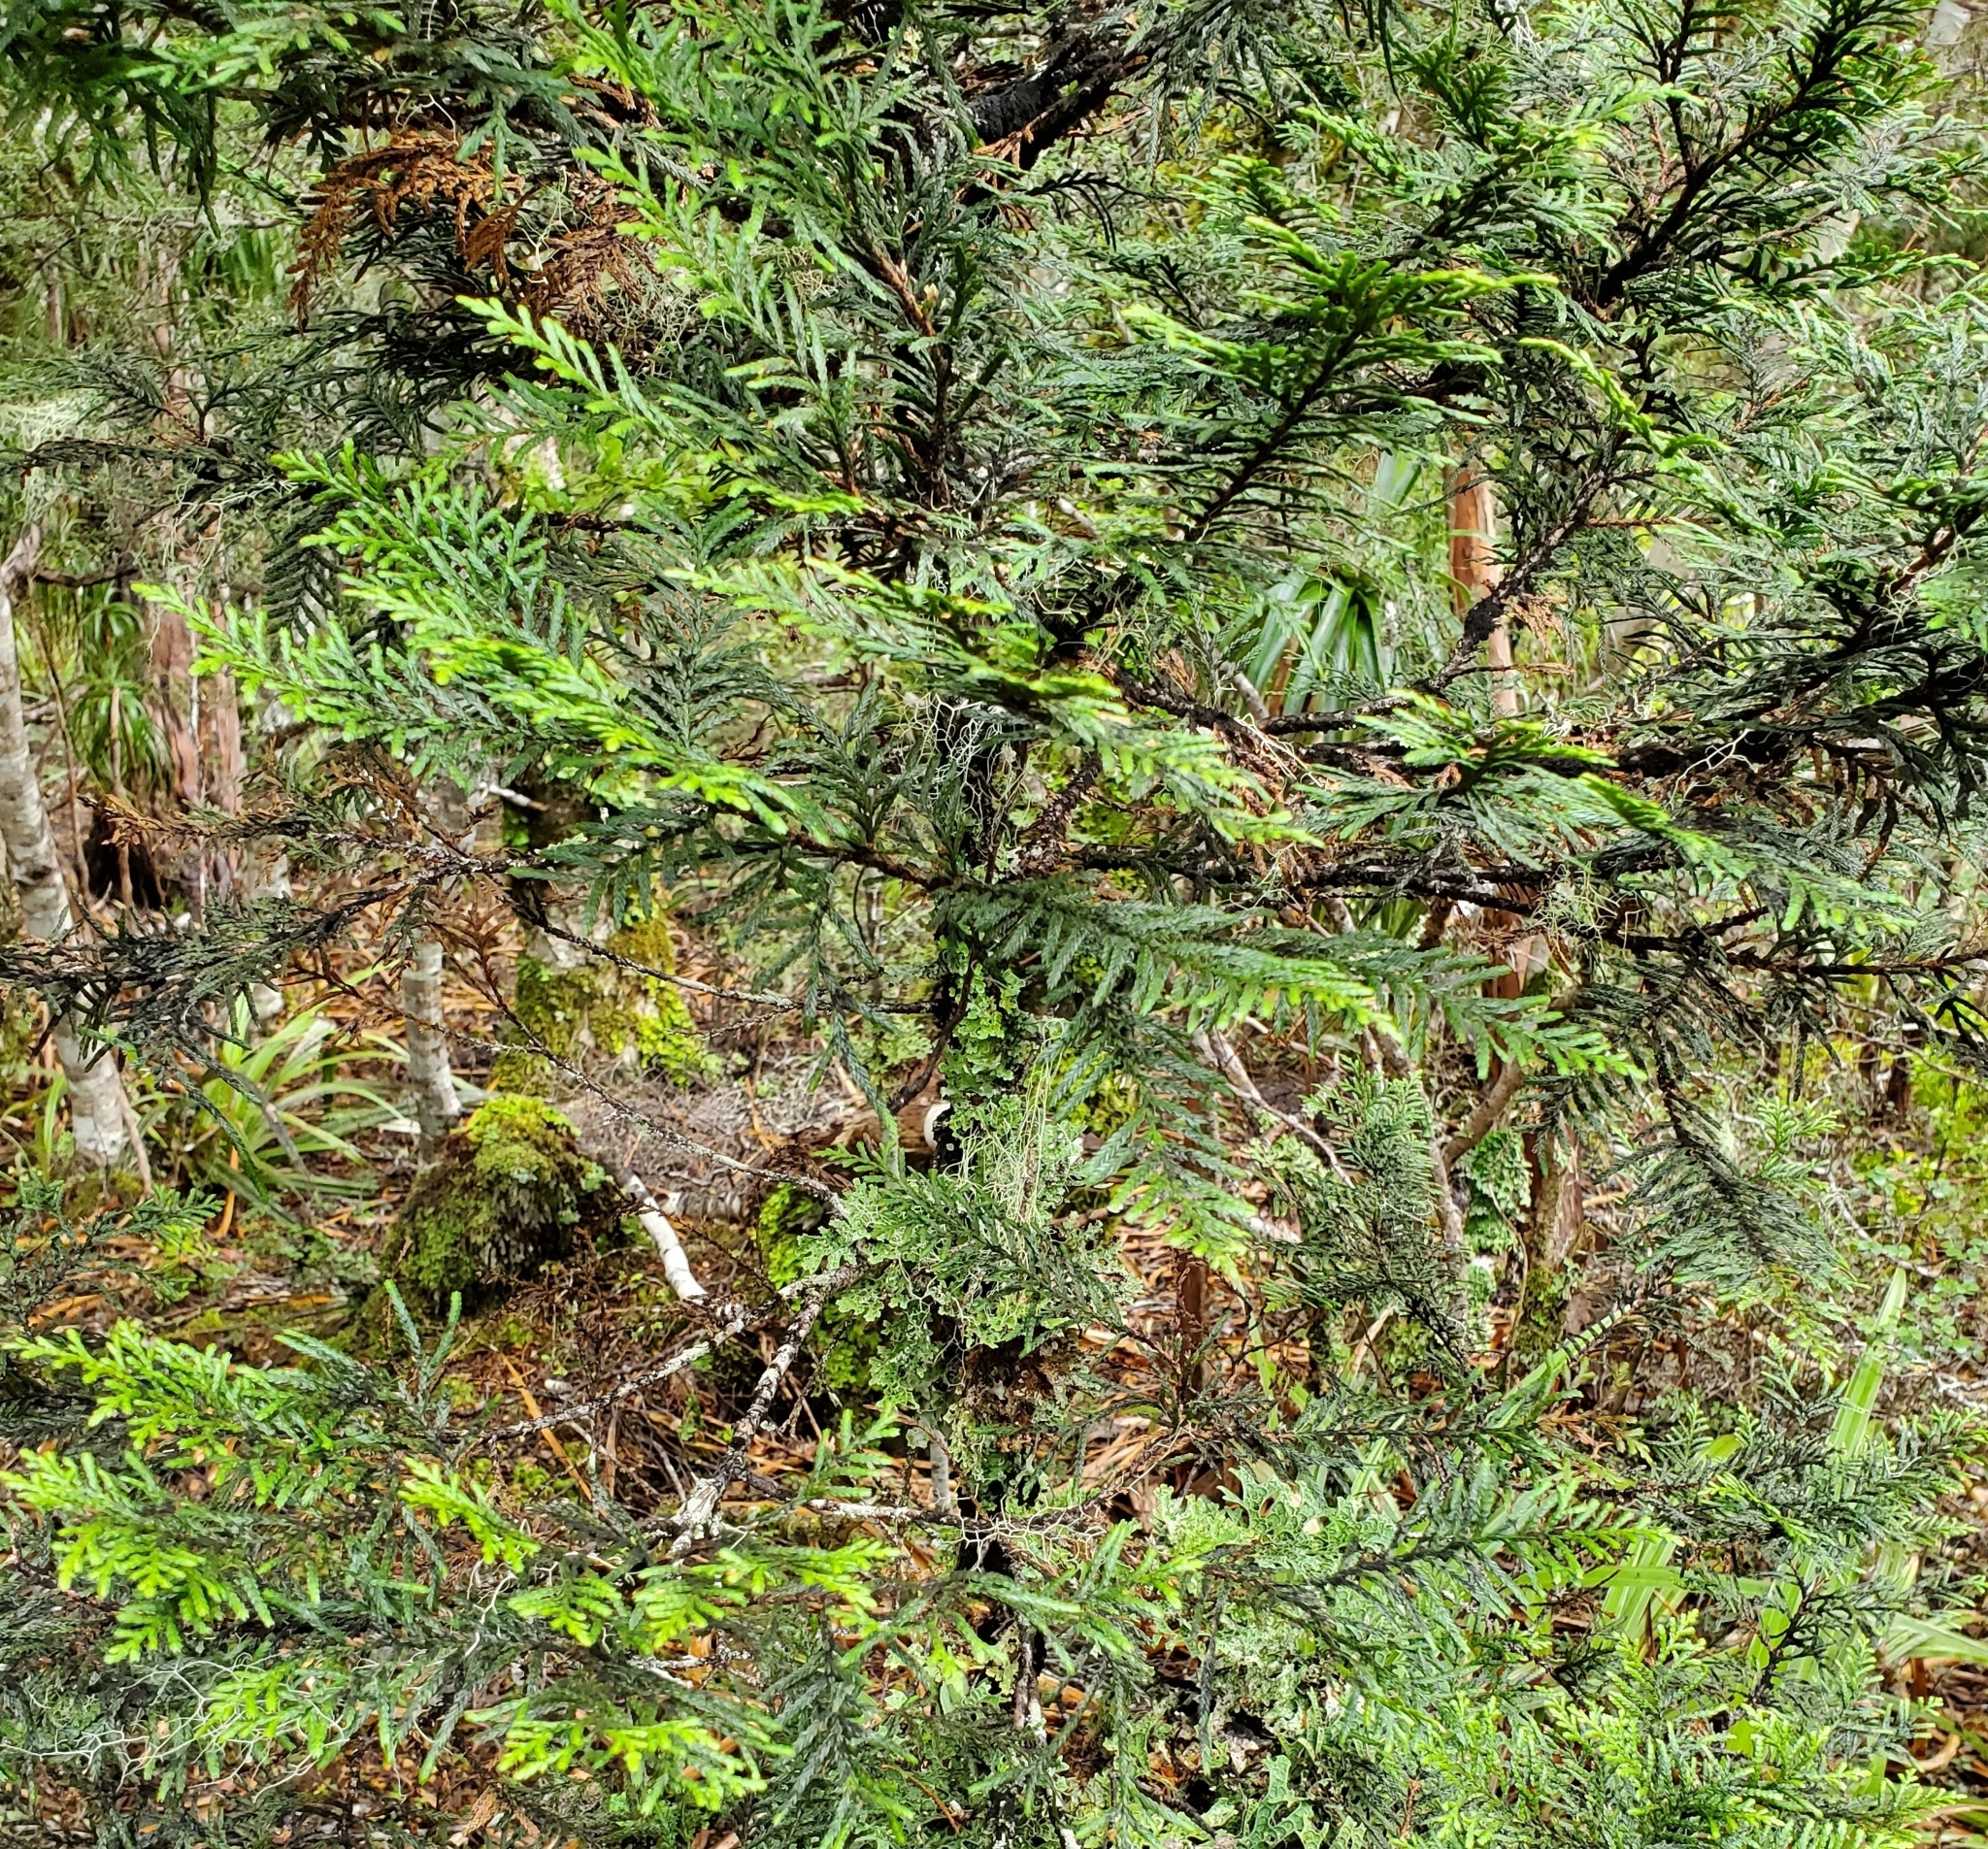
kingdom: Plantae
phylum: Tracheophyta
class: Pinopsida
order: Pinales
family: Cupressaceae
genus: Libocedrus
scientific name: Libocedrus bidwillii
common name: Cedar
